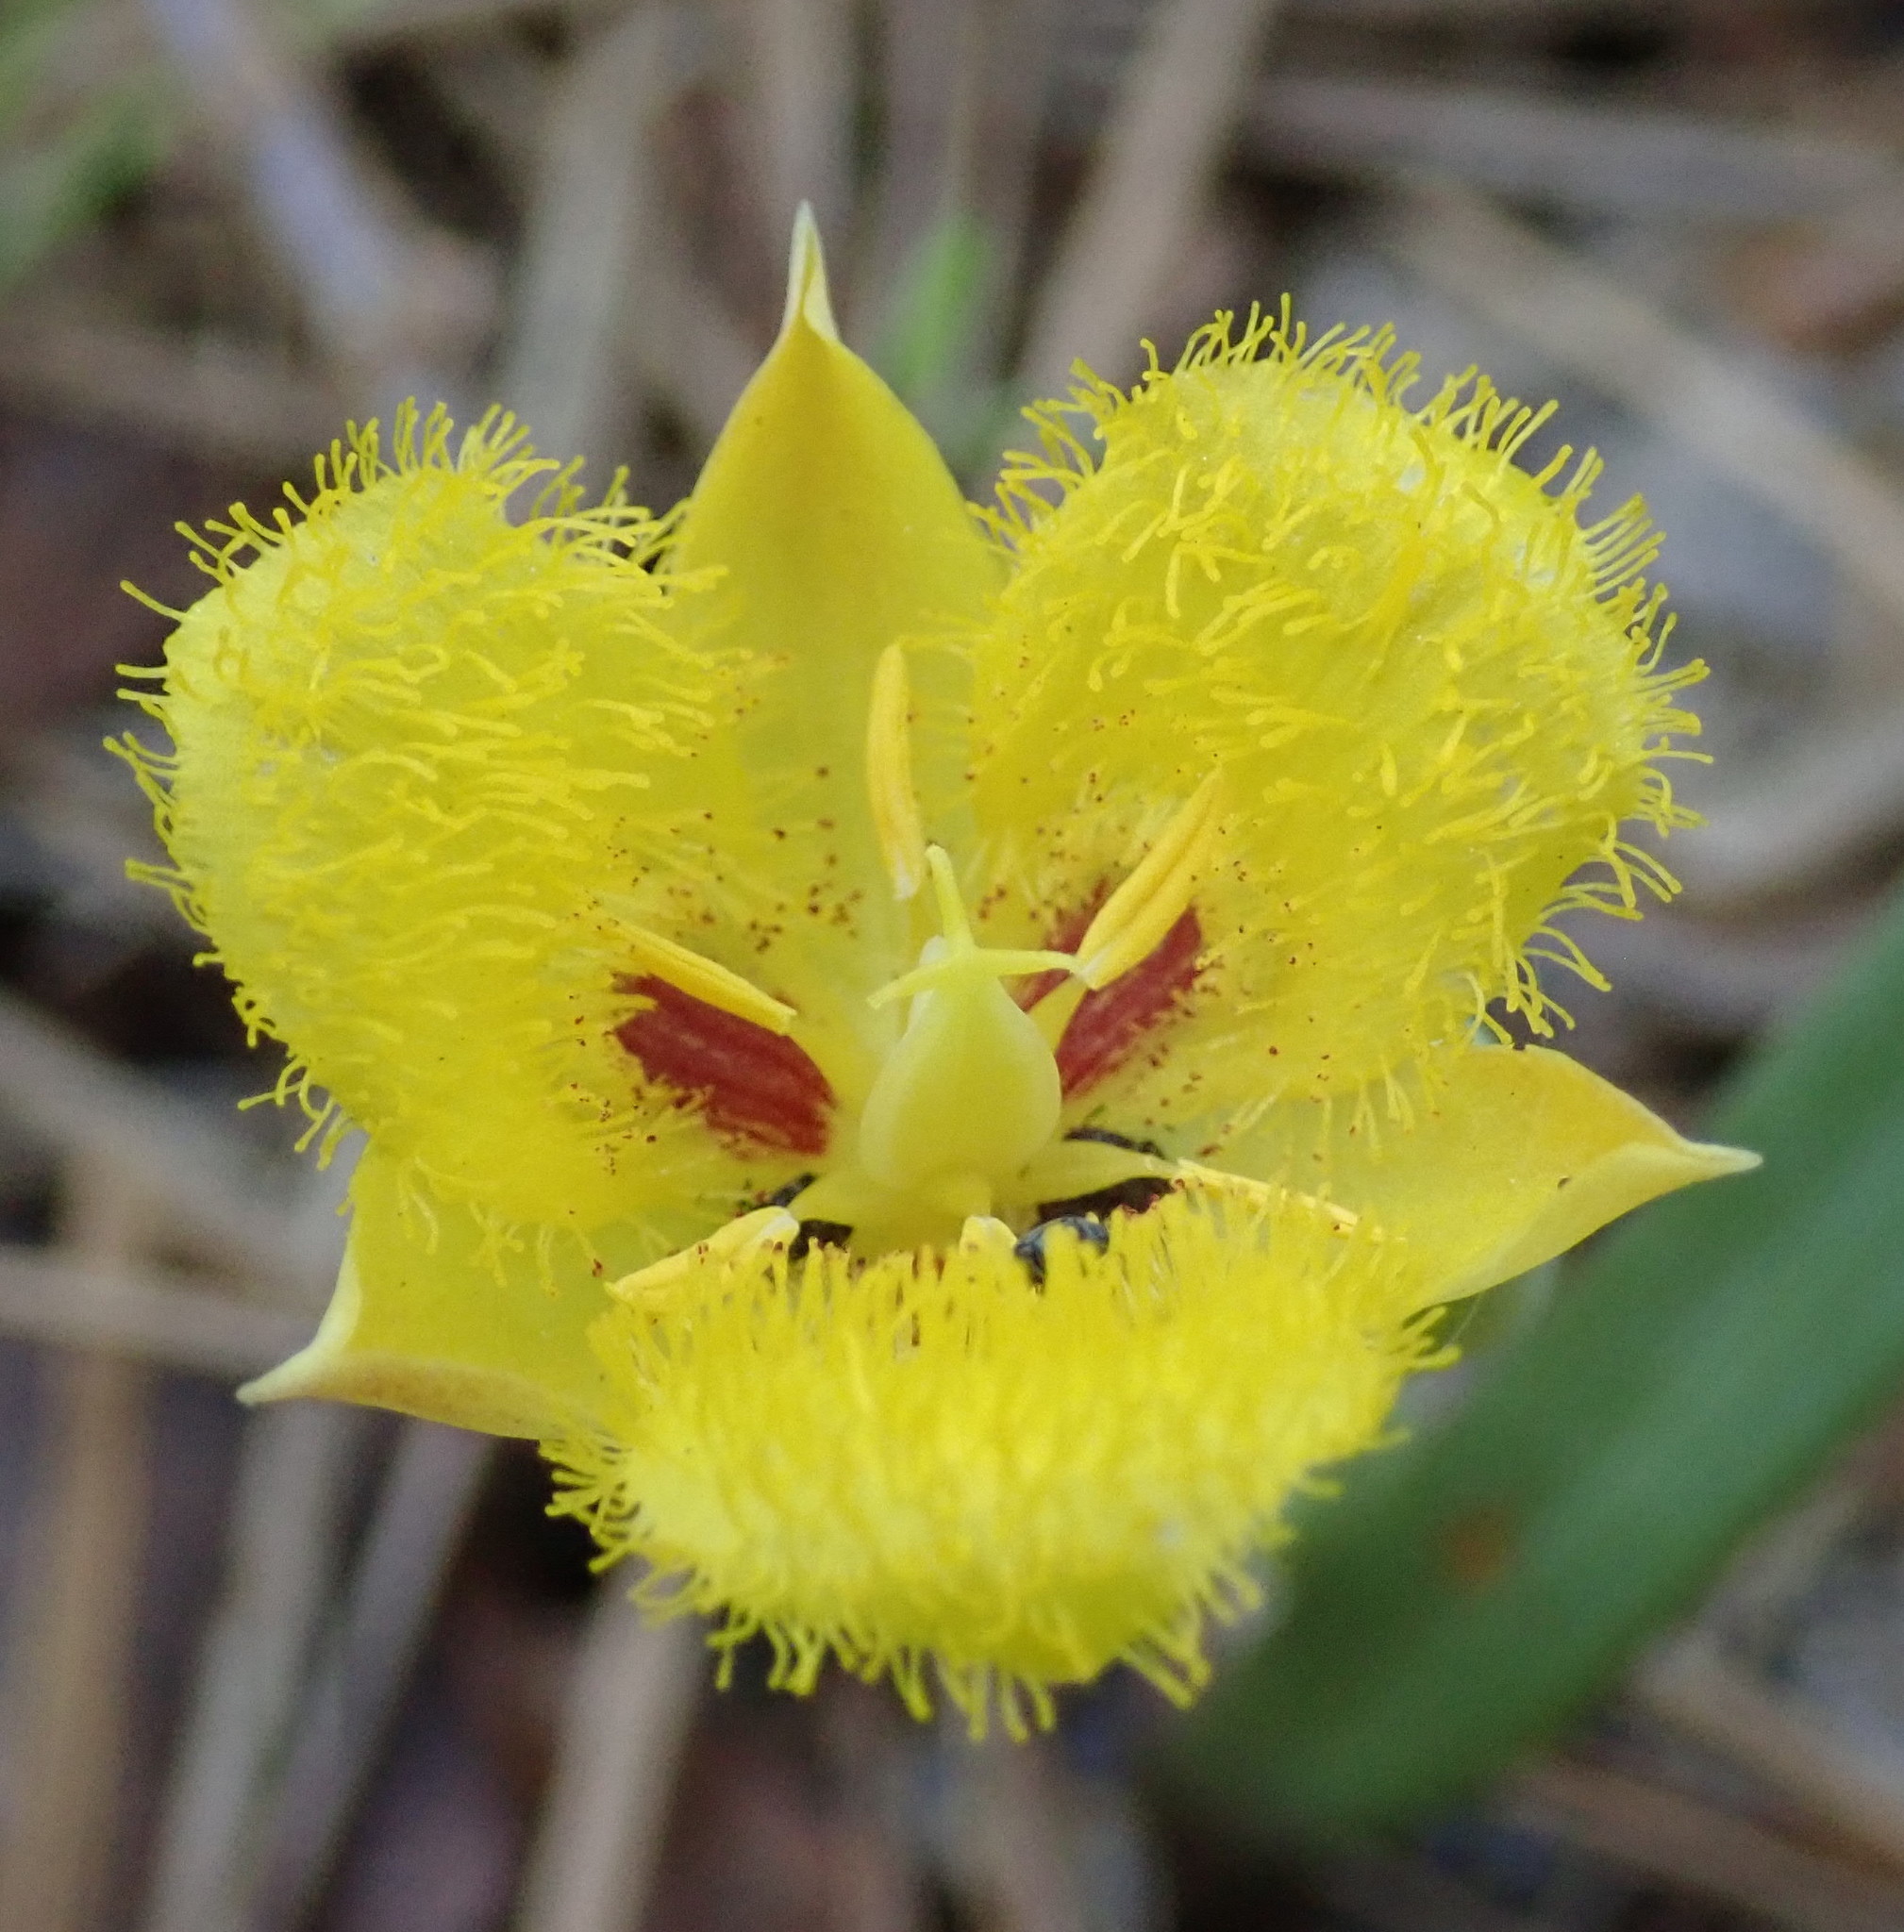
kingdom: Plantae
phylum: Tracheophyta
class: Liliopsida
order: Liliales
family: Liliaceae
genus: Calochortus
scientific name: Calochortus monophyllus
